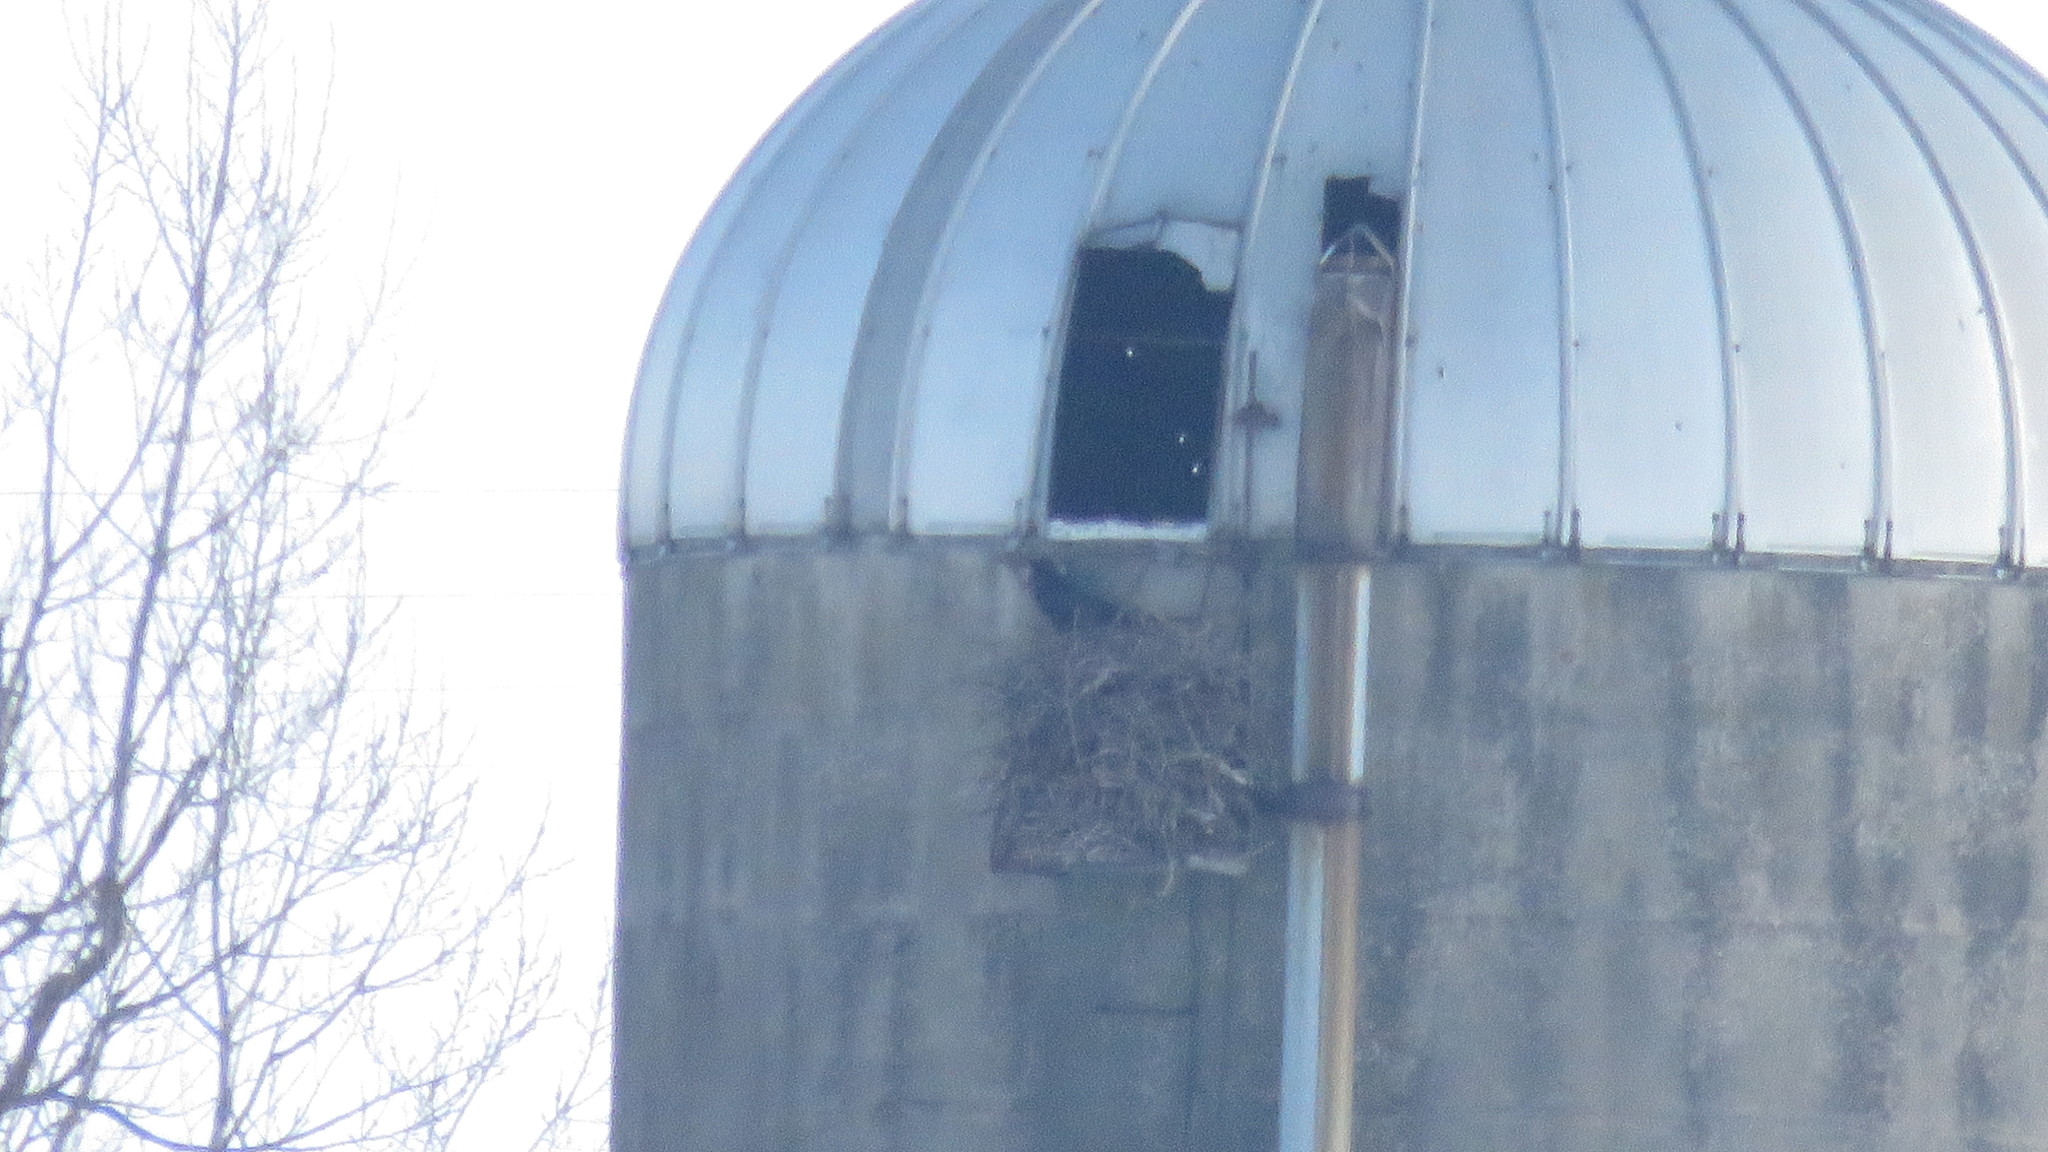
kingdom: Animalia
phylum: Chordata
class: Aves
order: Passeriformes
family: Corvidae
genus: Corvus
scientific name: Corvus corax
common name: Common raven
